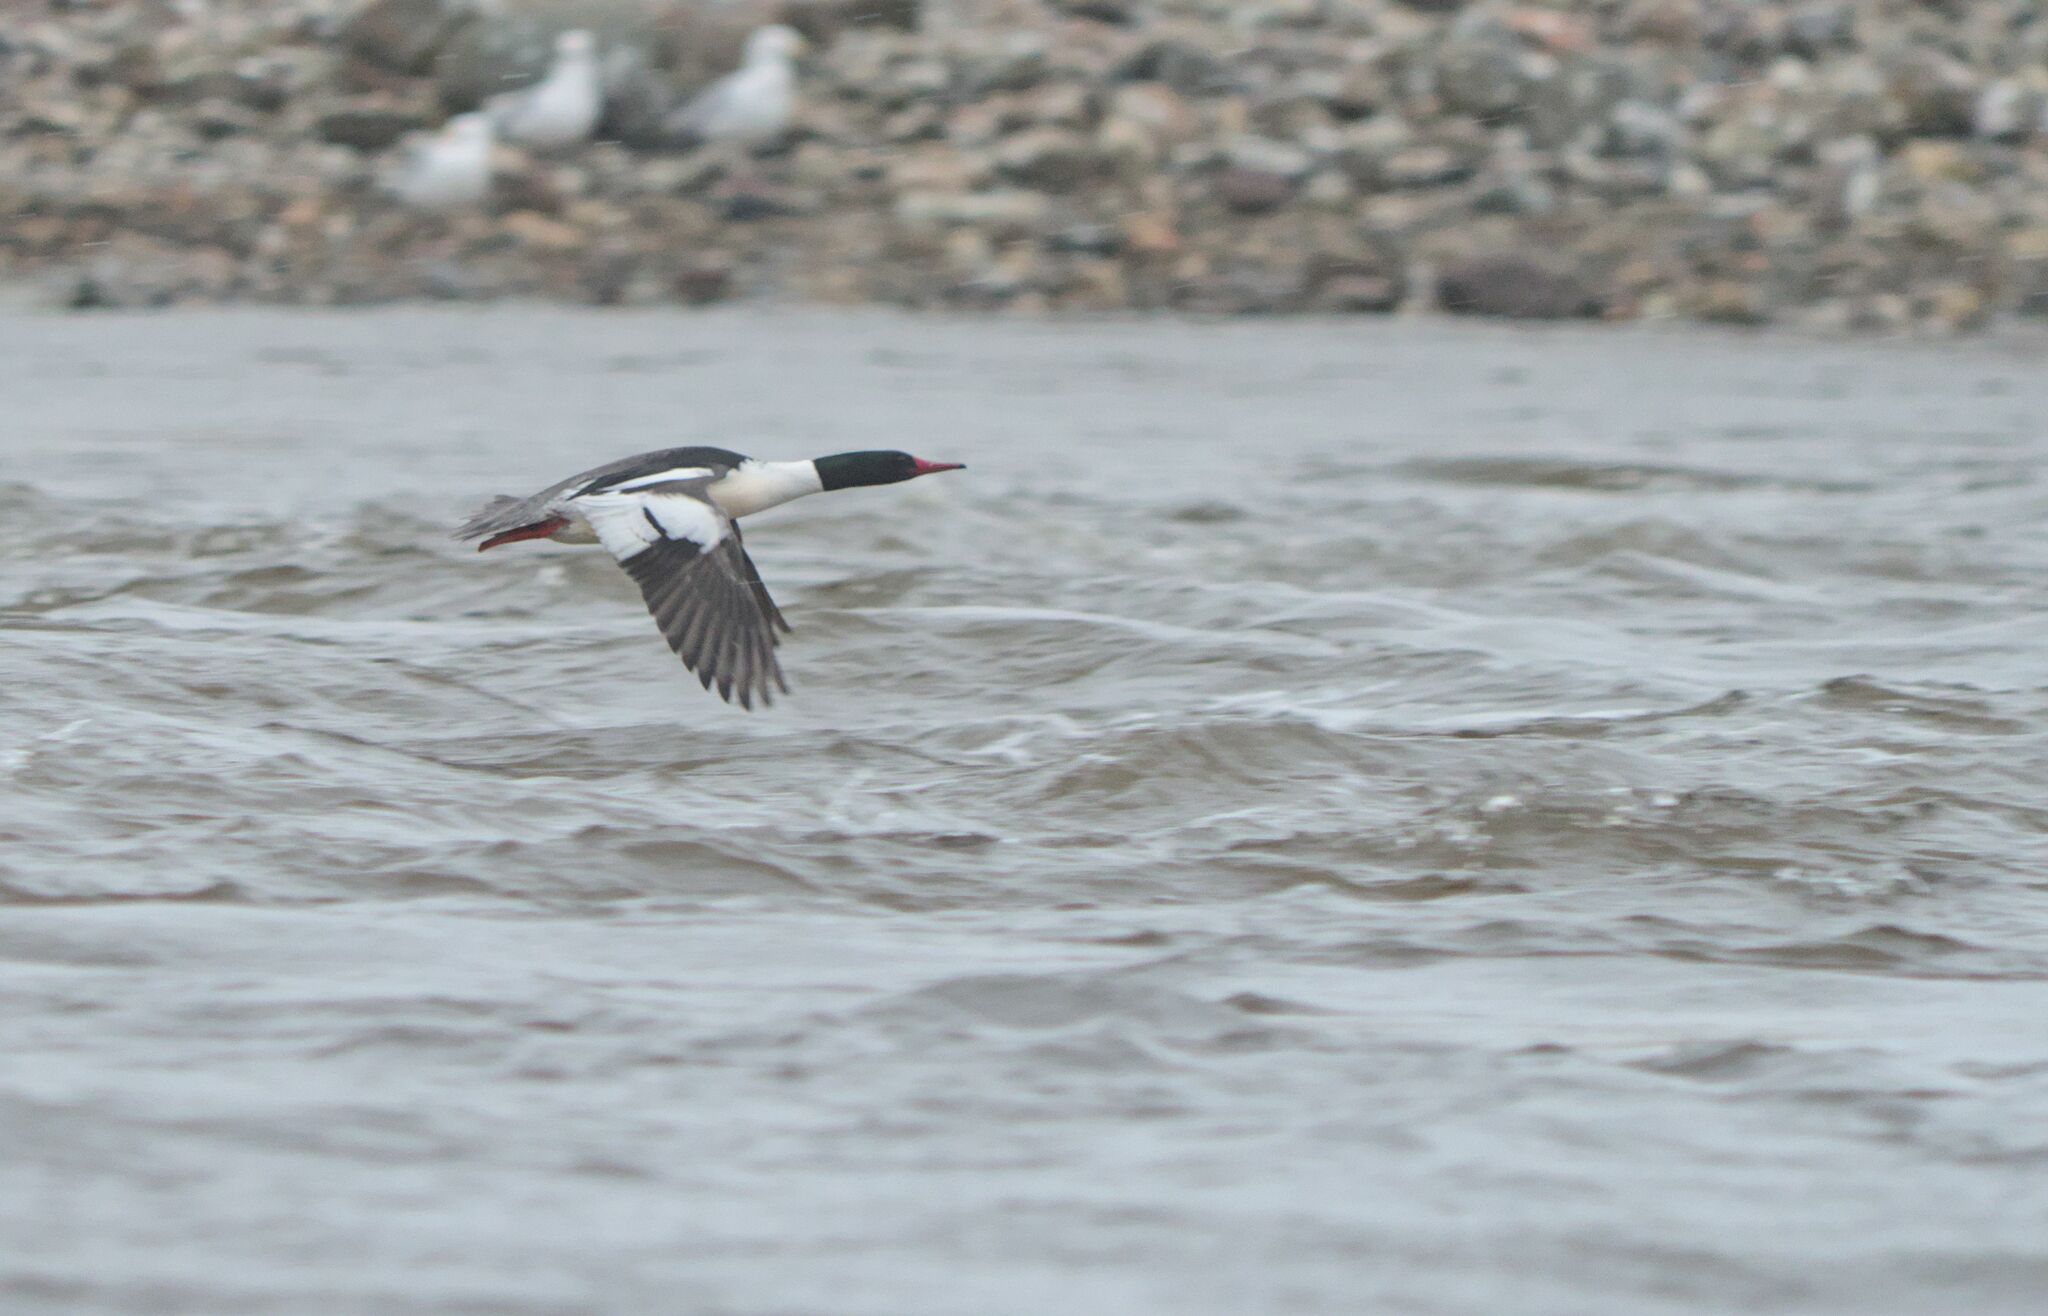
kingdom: Animalia
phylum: Chordata
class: Aves
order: Anseriformes
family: Anatidae
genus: Mergus
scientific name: Mergus merganser
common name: Common merganser
